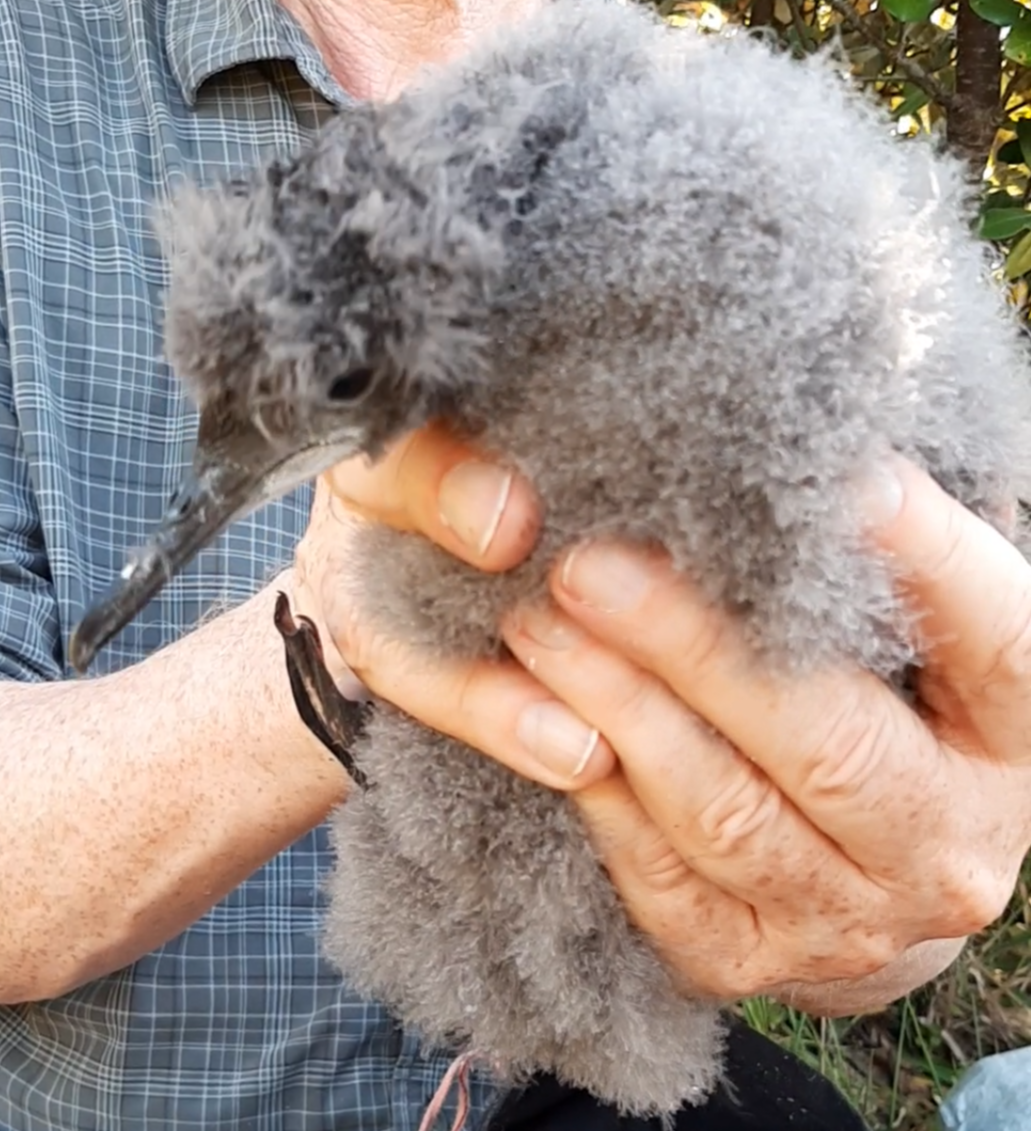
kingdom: Animalia
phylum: Chordata
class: Aves
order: Procellariiformes
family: Procellariidae
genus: Puffinus
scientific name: Puffinus gavia
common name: Fluttering shearwater
